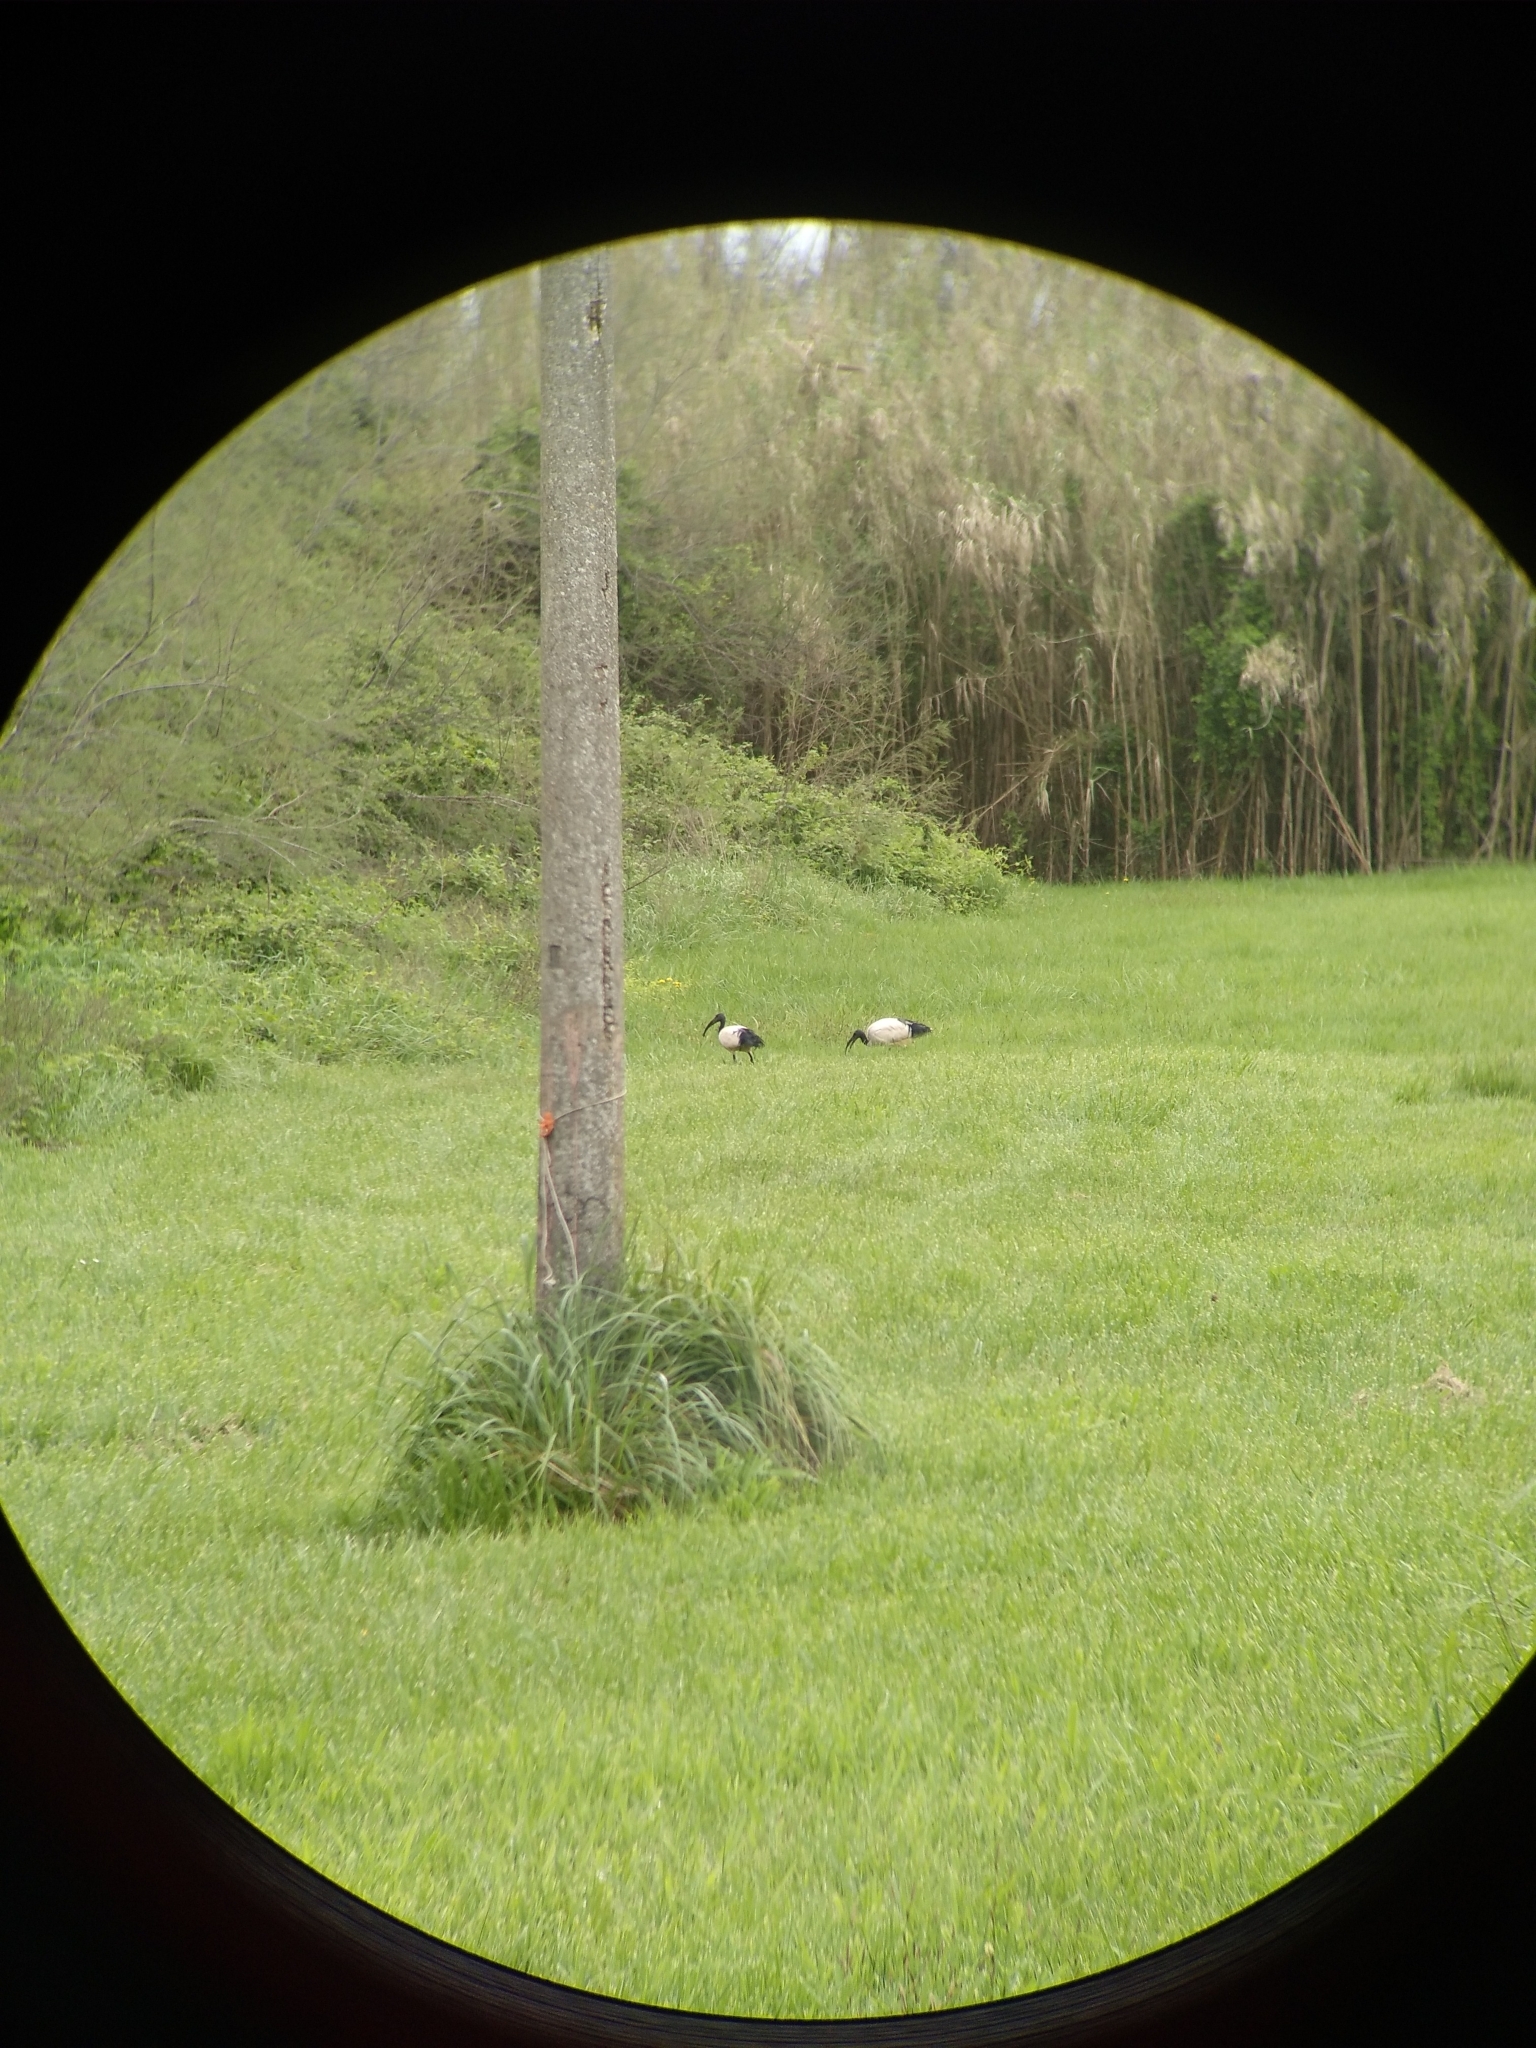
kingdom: Animalia
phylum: Chordata
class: Aves
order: Pelecaniformes
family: Threskiornithidae
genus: Threskiornis
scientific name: Threskiornis aethiopicus
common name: Sacred ibis
